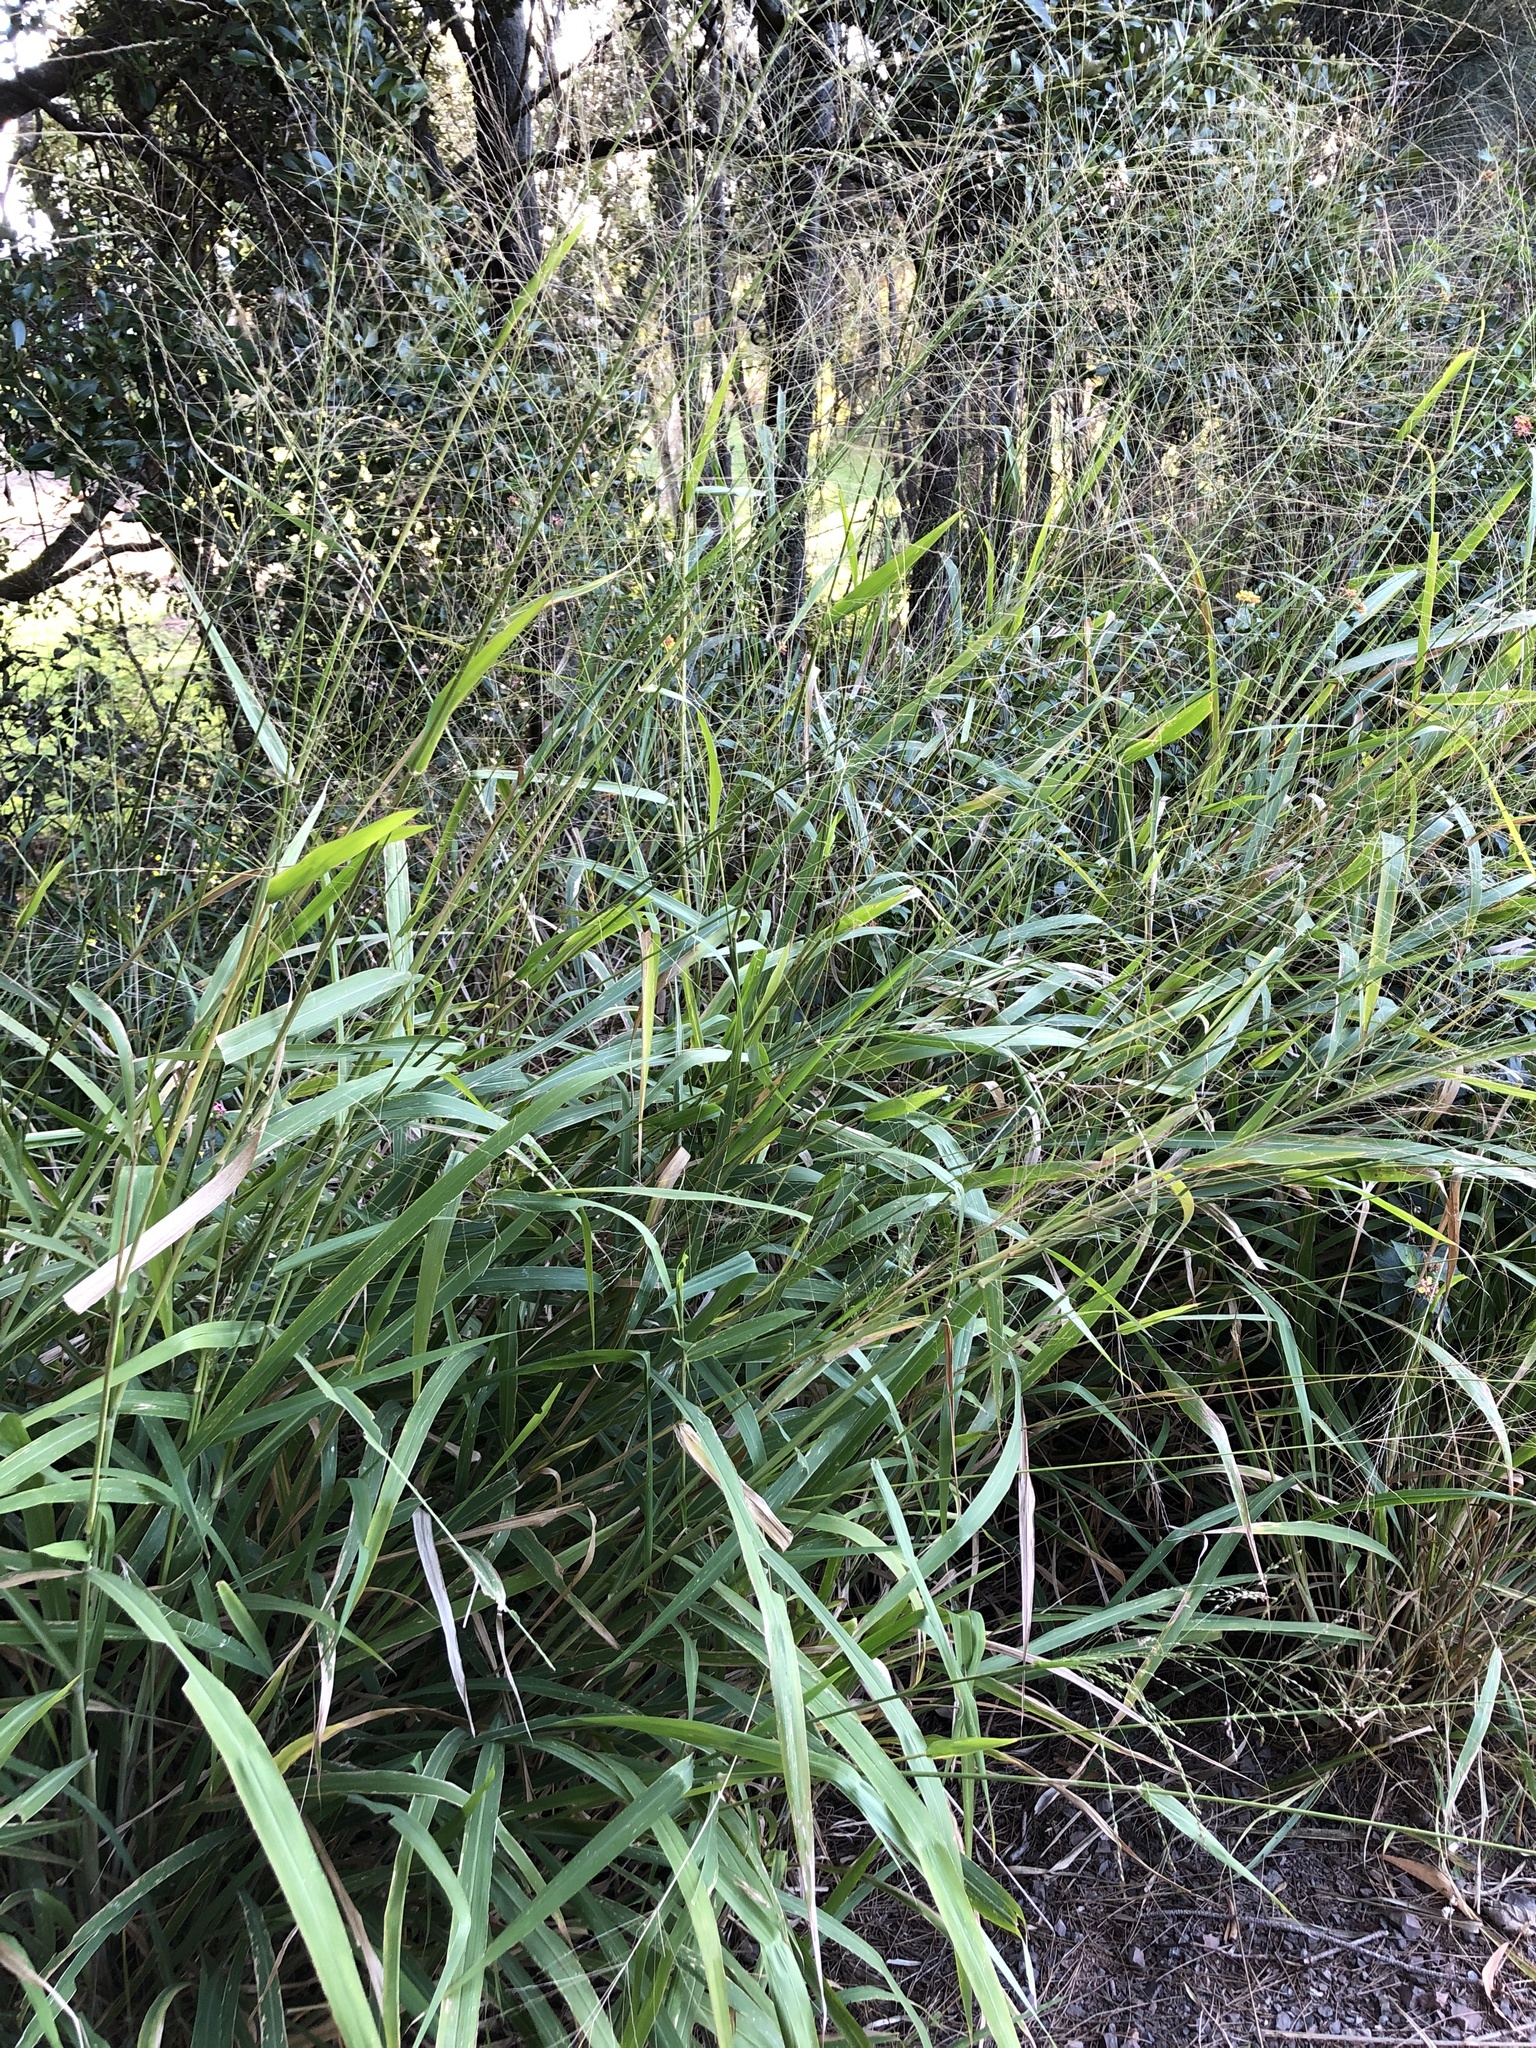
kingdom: Plantae
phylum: Tracheophyta
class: Liliopsida
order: Poales
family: Poaceae
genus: Megathyrsus
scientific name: Megathyrsus maximus
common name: Guineagrass
